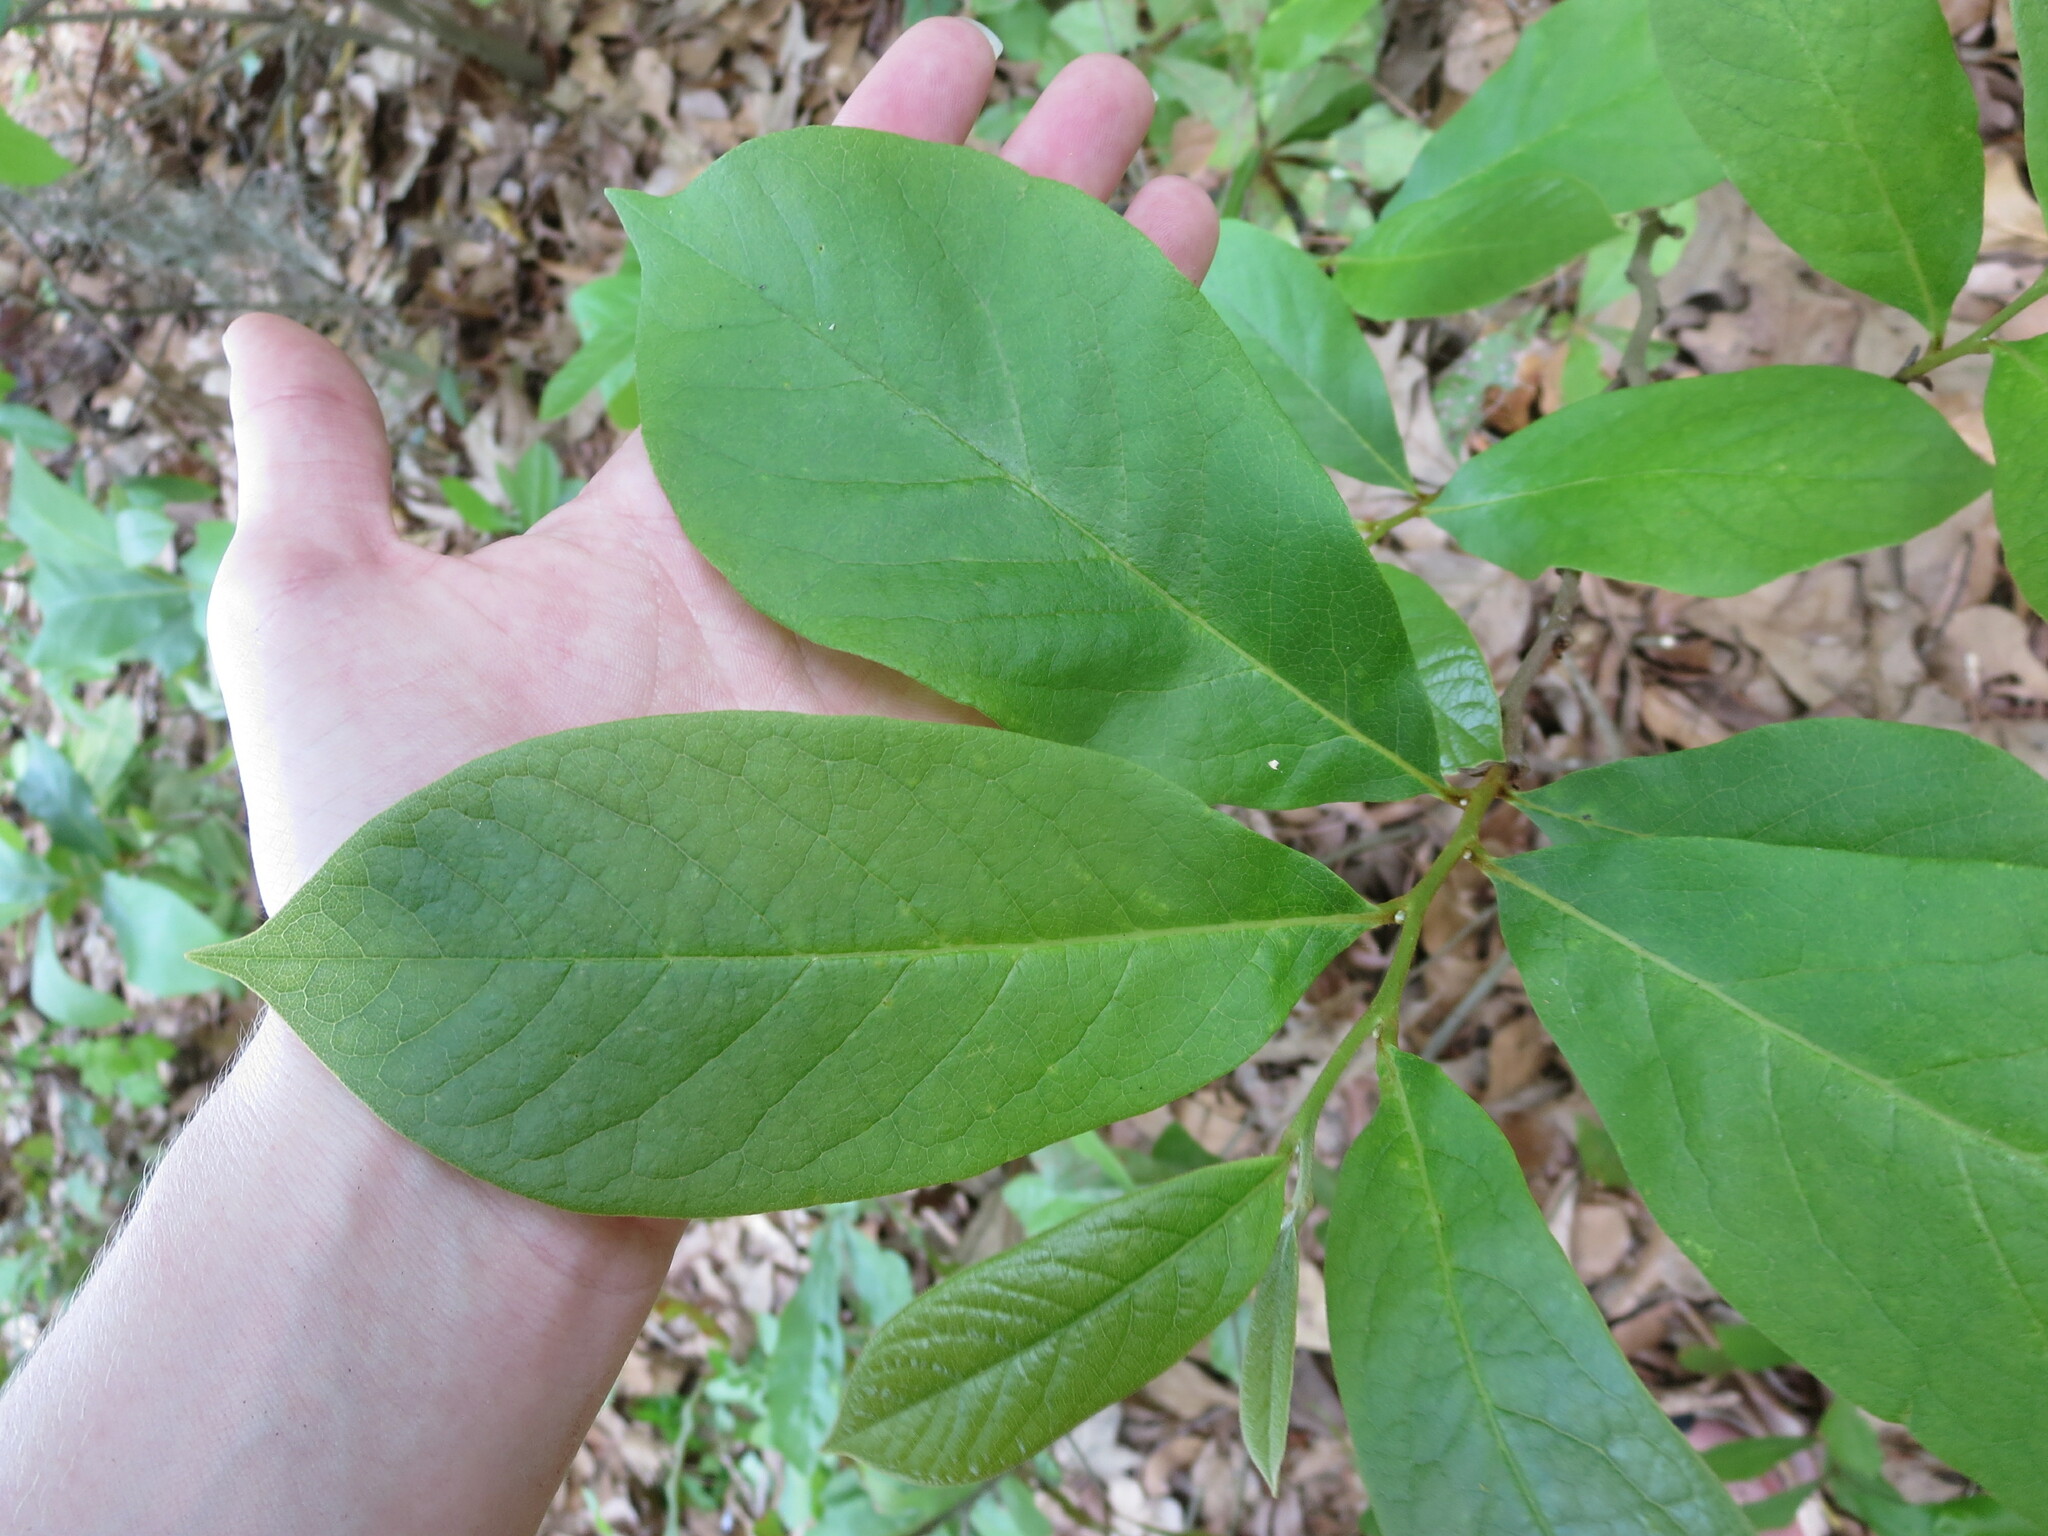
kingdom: Plantae
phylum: Tracheophyta
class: Magnoliopsida
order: Magnoliales
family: Annonaceae
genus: Asimina
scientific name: Asimina parviflora
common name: Dwarf pawpaw
